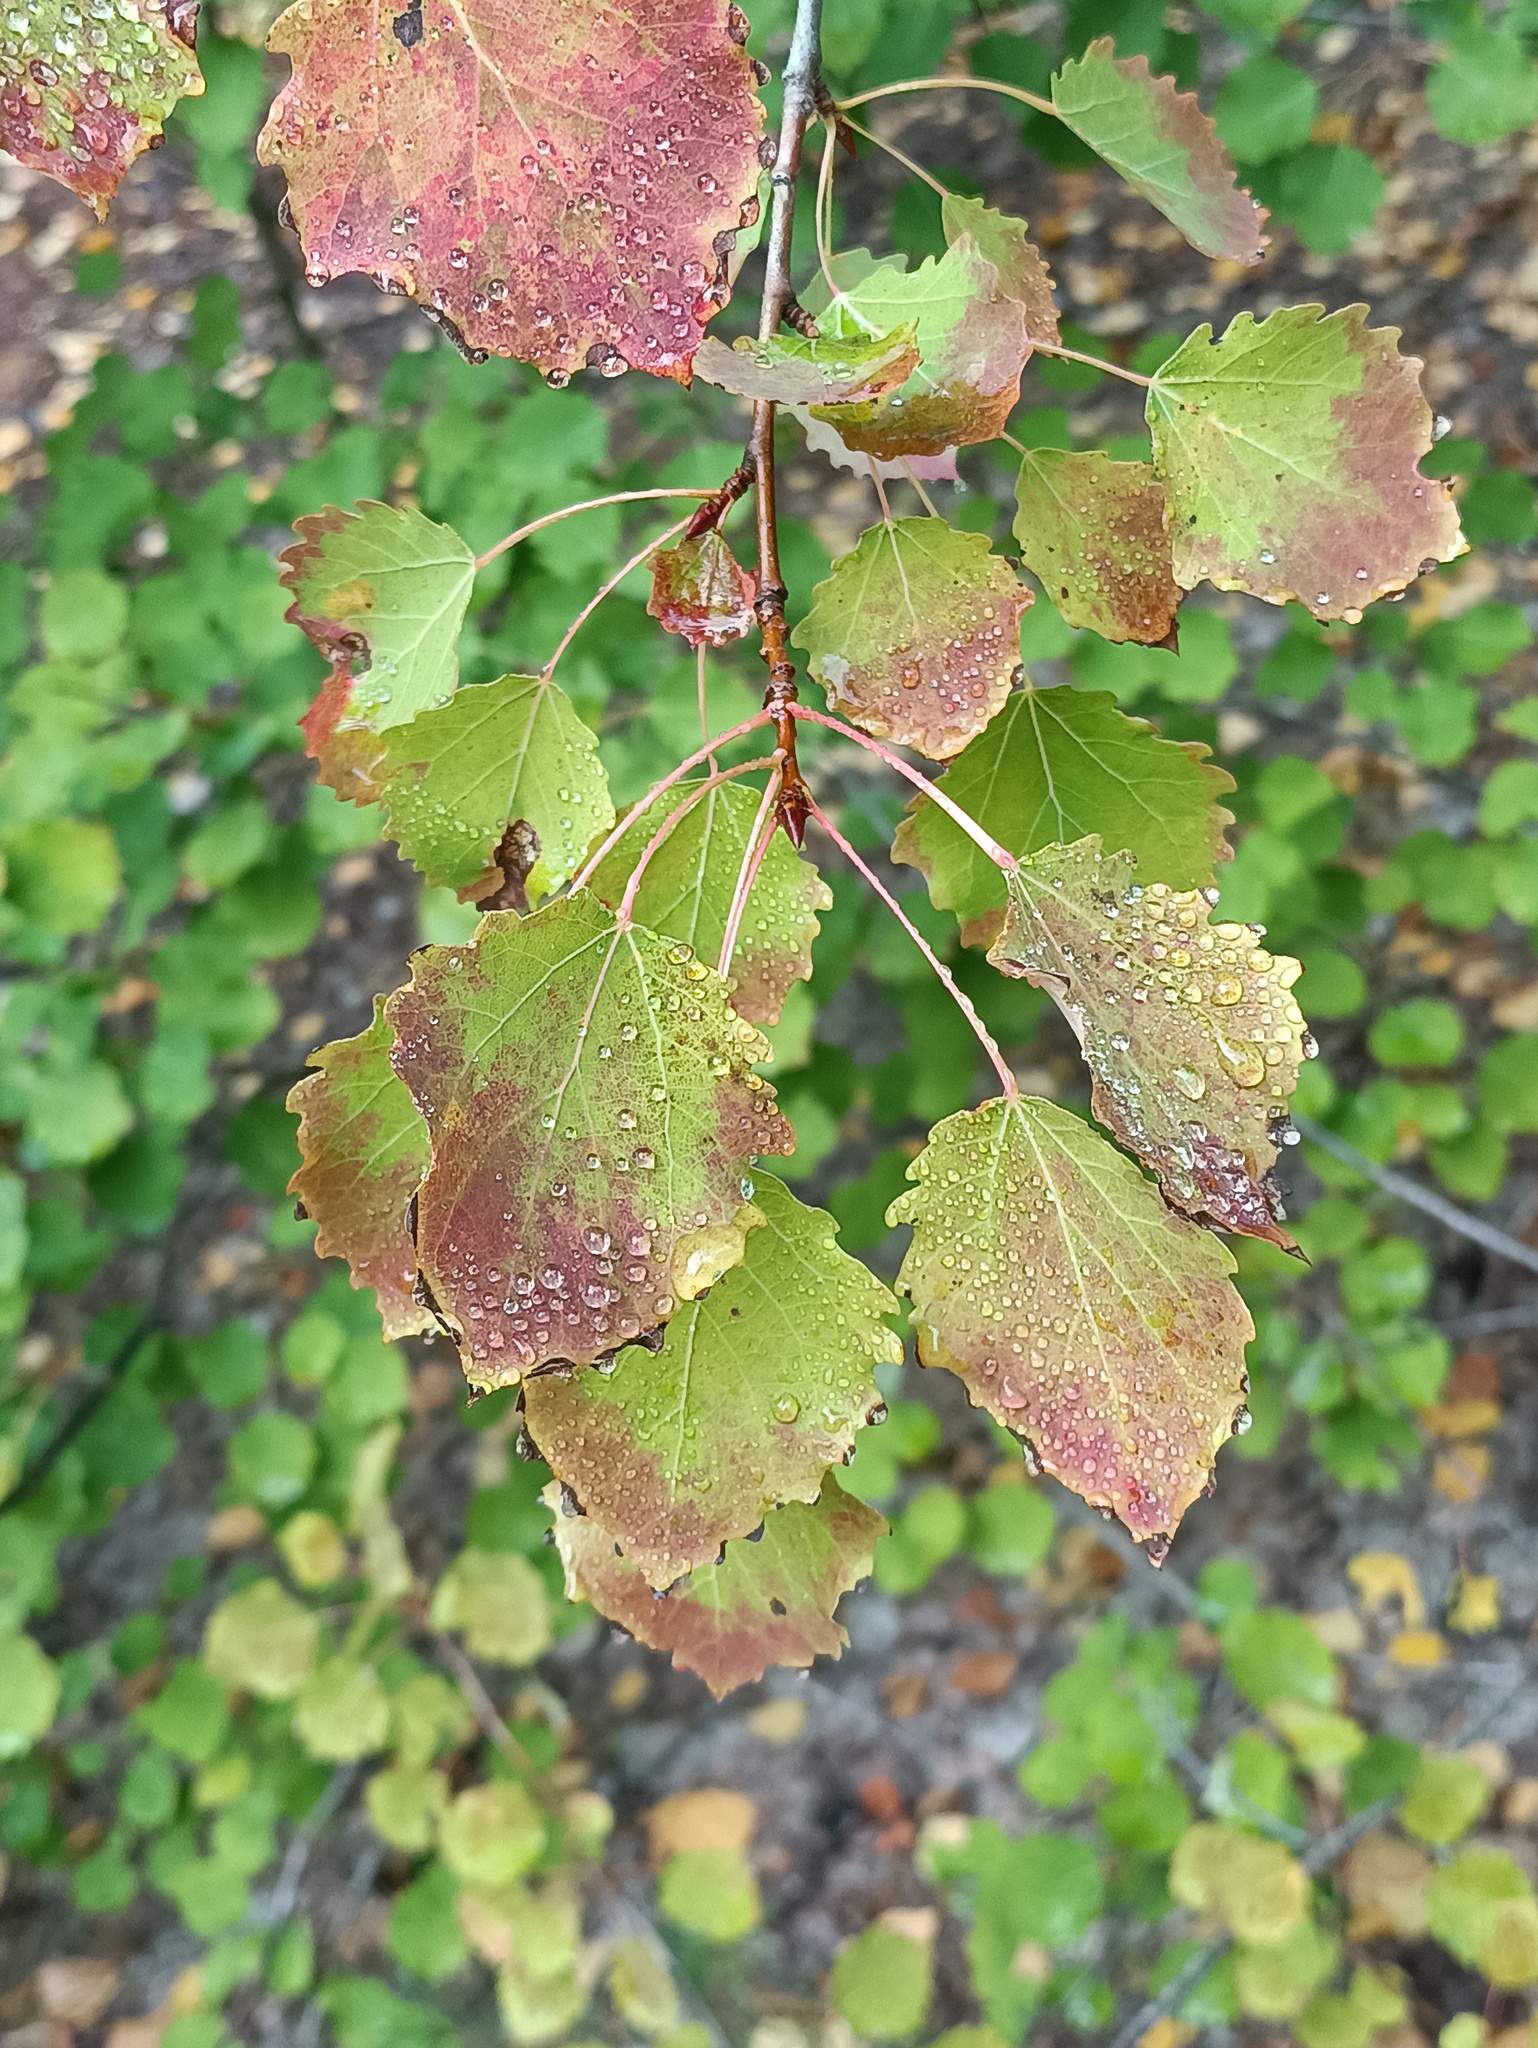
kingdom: Plantae
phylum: Tracheophyta
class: Magnoliopsida
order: Malpighiales
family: Salicaceae
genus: Populus
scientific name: Populus tremula
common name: European aspen
